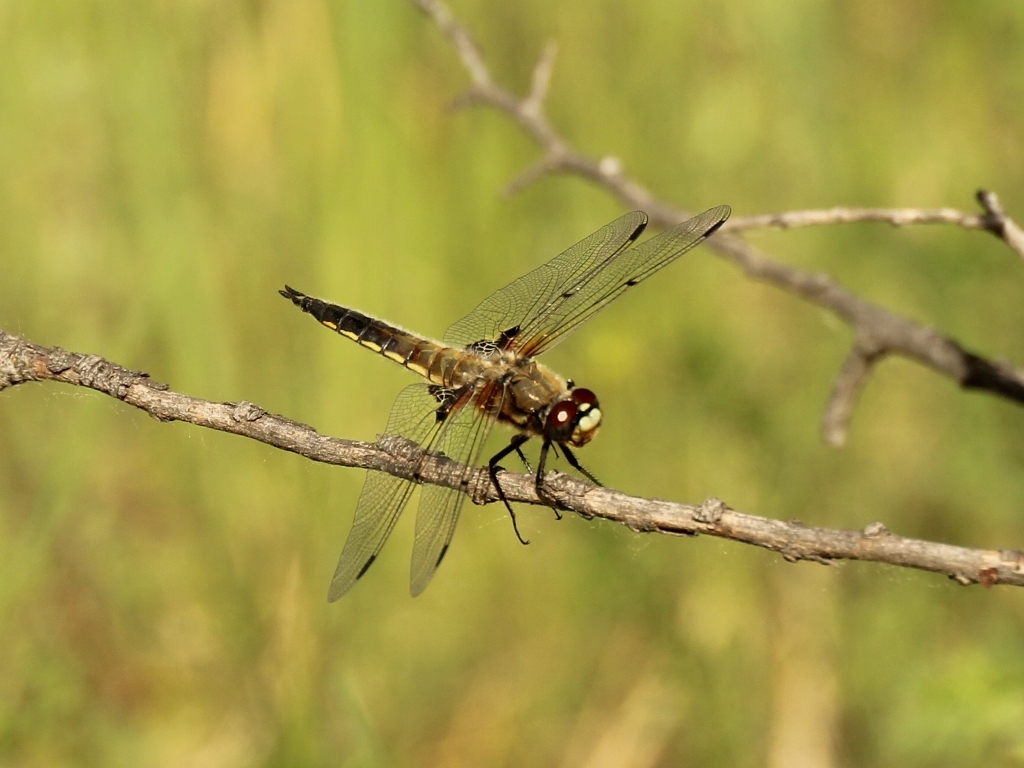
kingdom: Animalia
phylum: Arthropoda
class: Insecta
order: Odonata
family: Libellulidae
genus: Libellula
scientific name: Libellula quadrimaculata
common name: Four-spotted chaser
